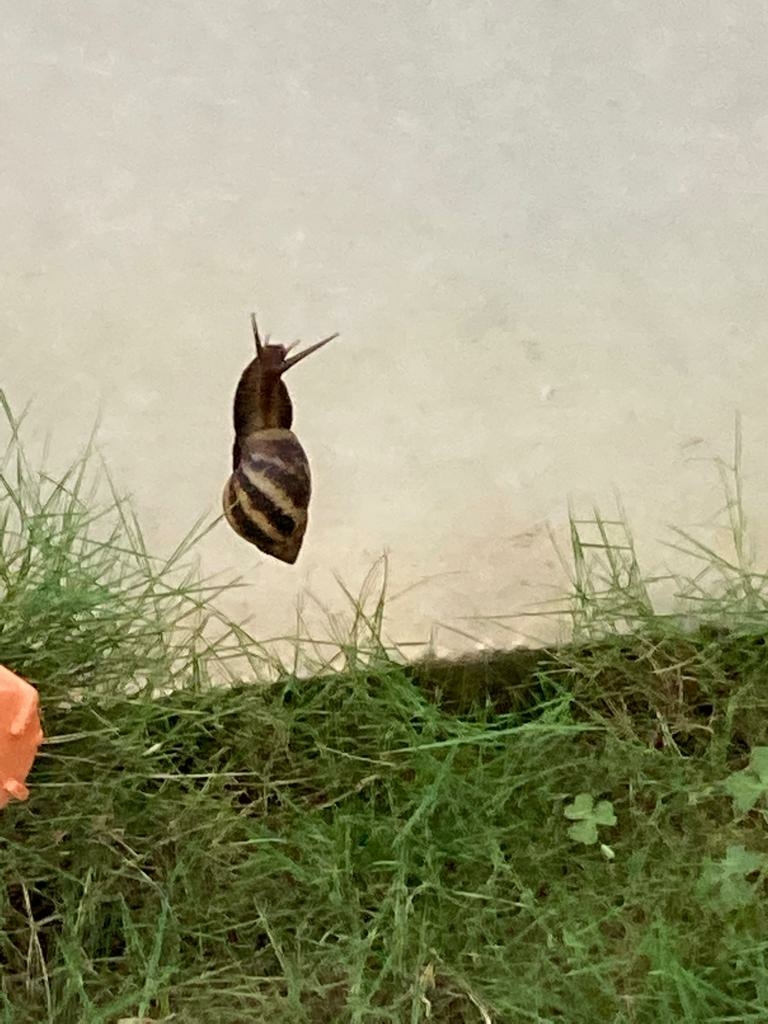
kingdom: Animalia
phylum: Mollusca
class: Gastropoda
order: Stylommatophora
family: Achatinidae
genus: Lissachatina
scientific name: Lissachatina fulica
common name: Giant african snail
